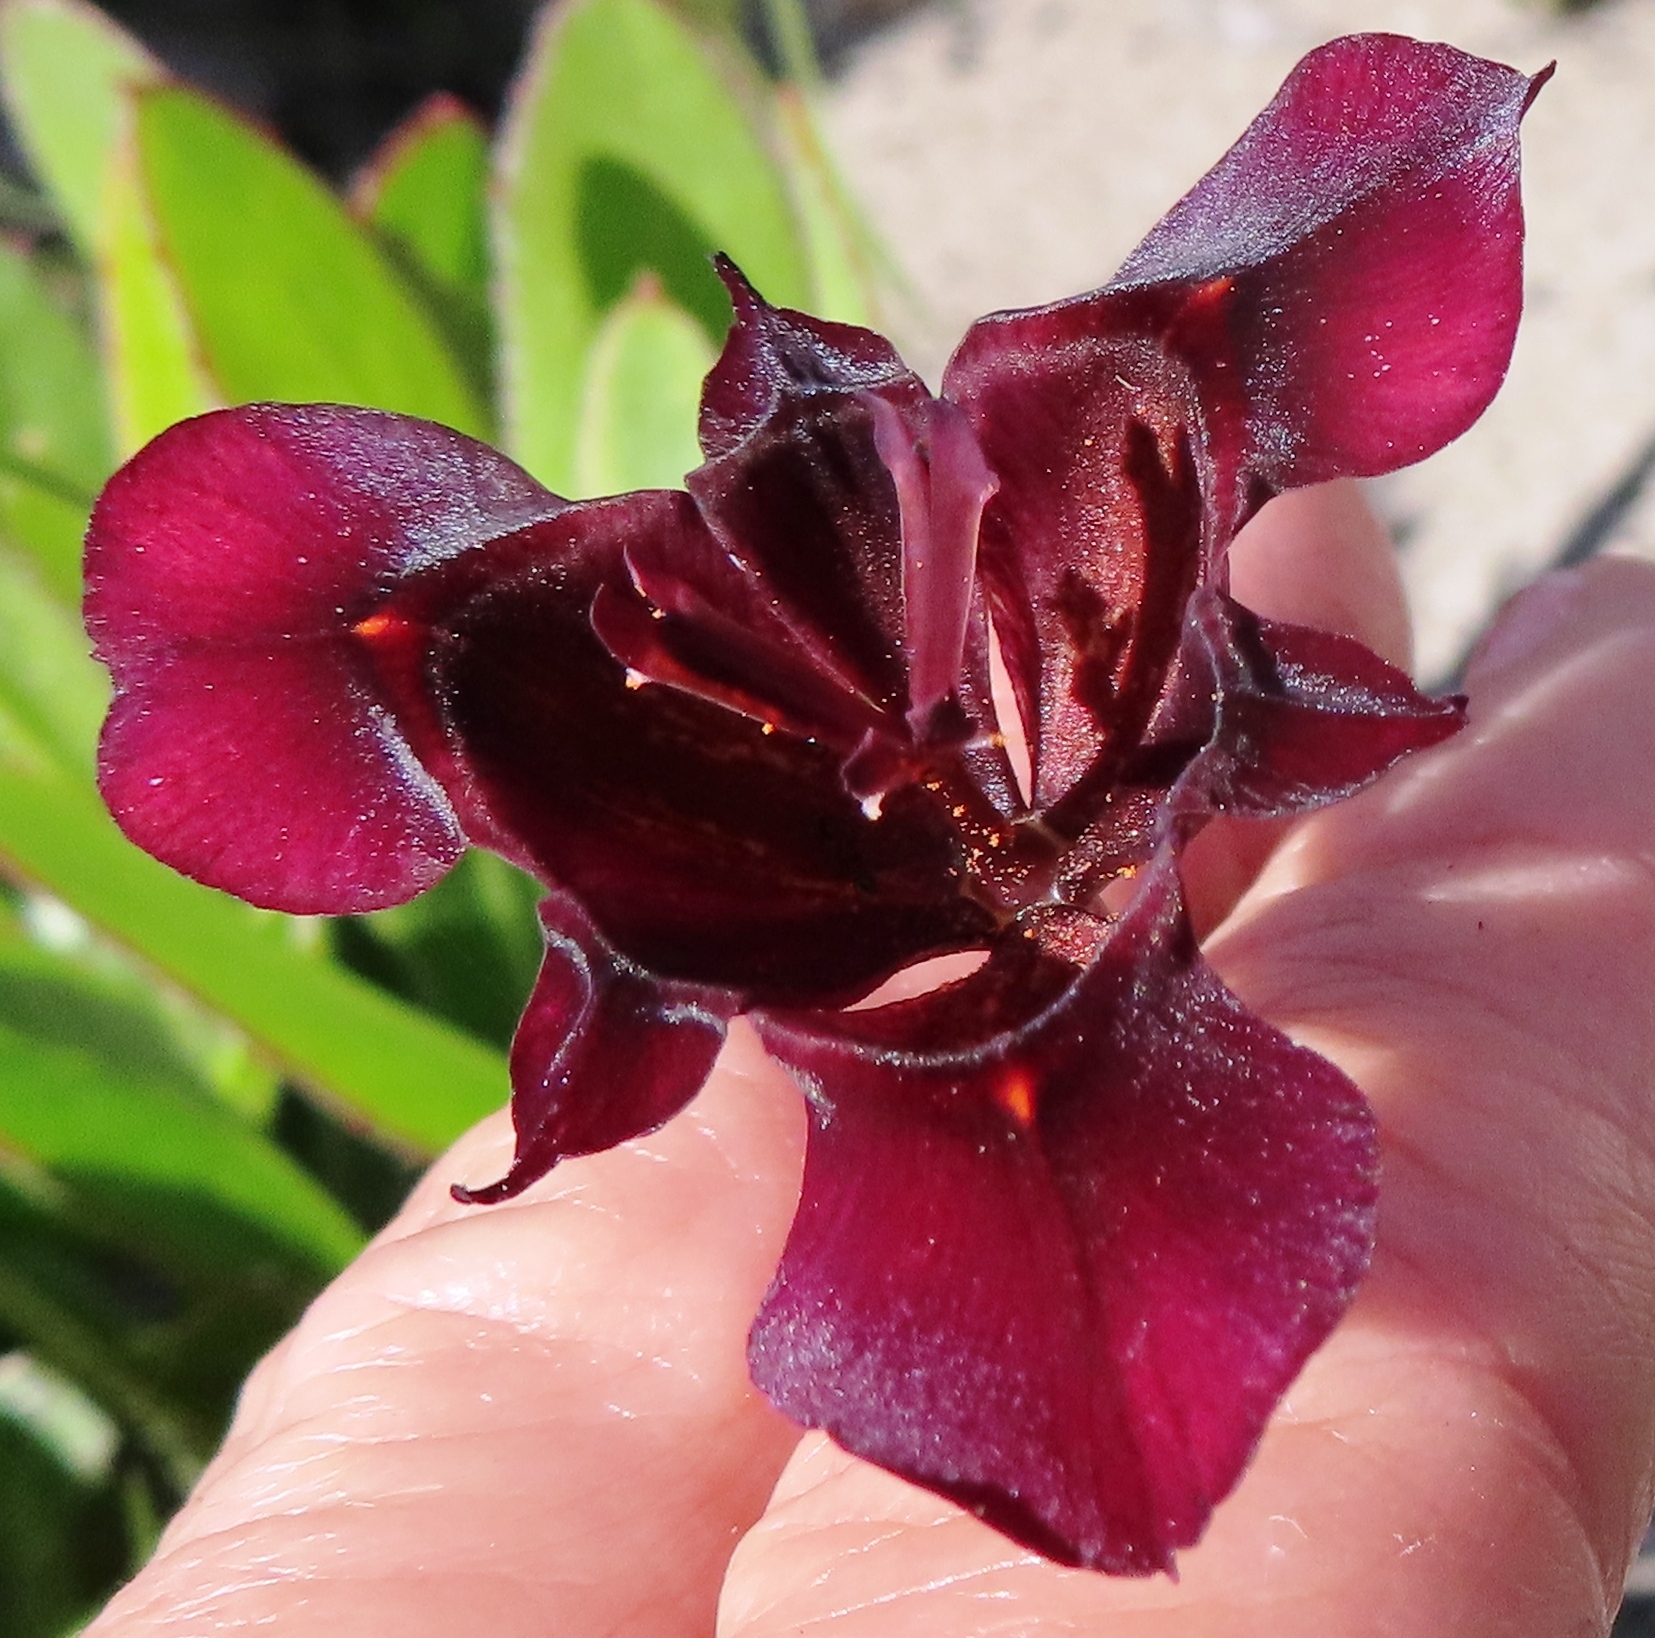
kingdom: Plantae
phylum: Tracheophyta
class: Liliopsida
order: Asparagales
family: Iridaceae
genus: Moraea
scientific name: Moraea lurida
